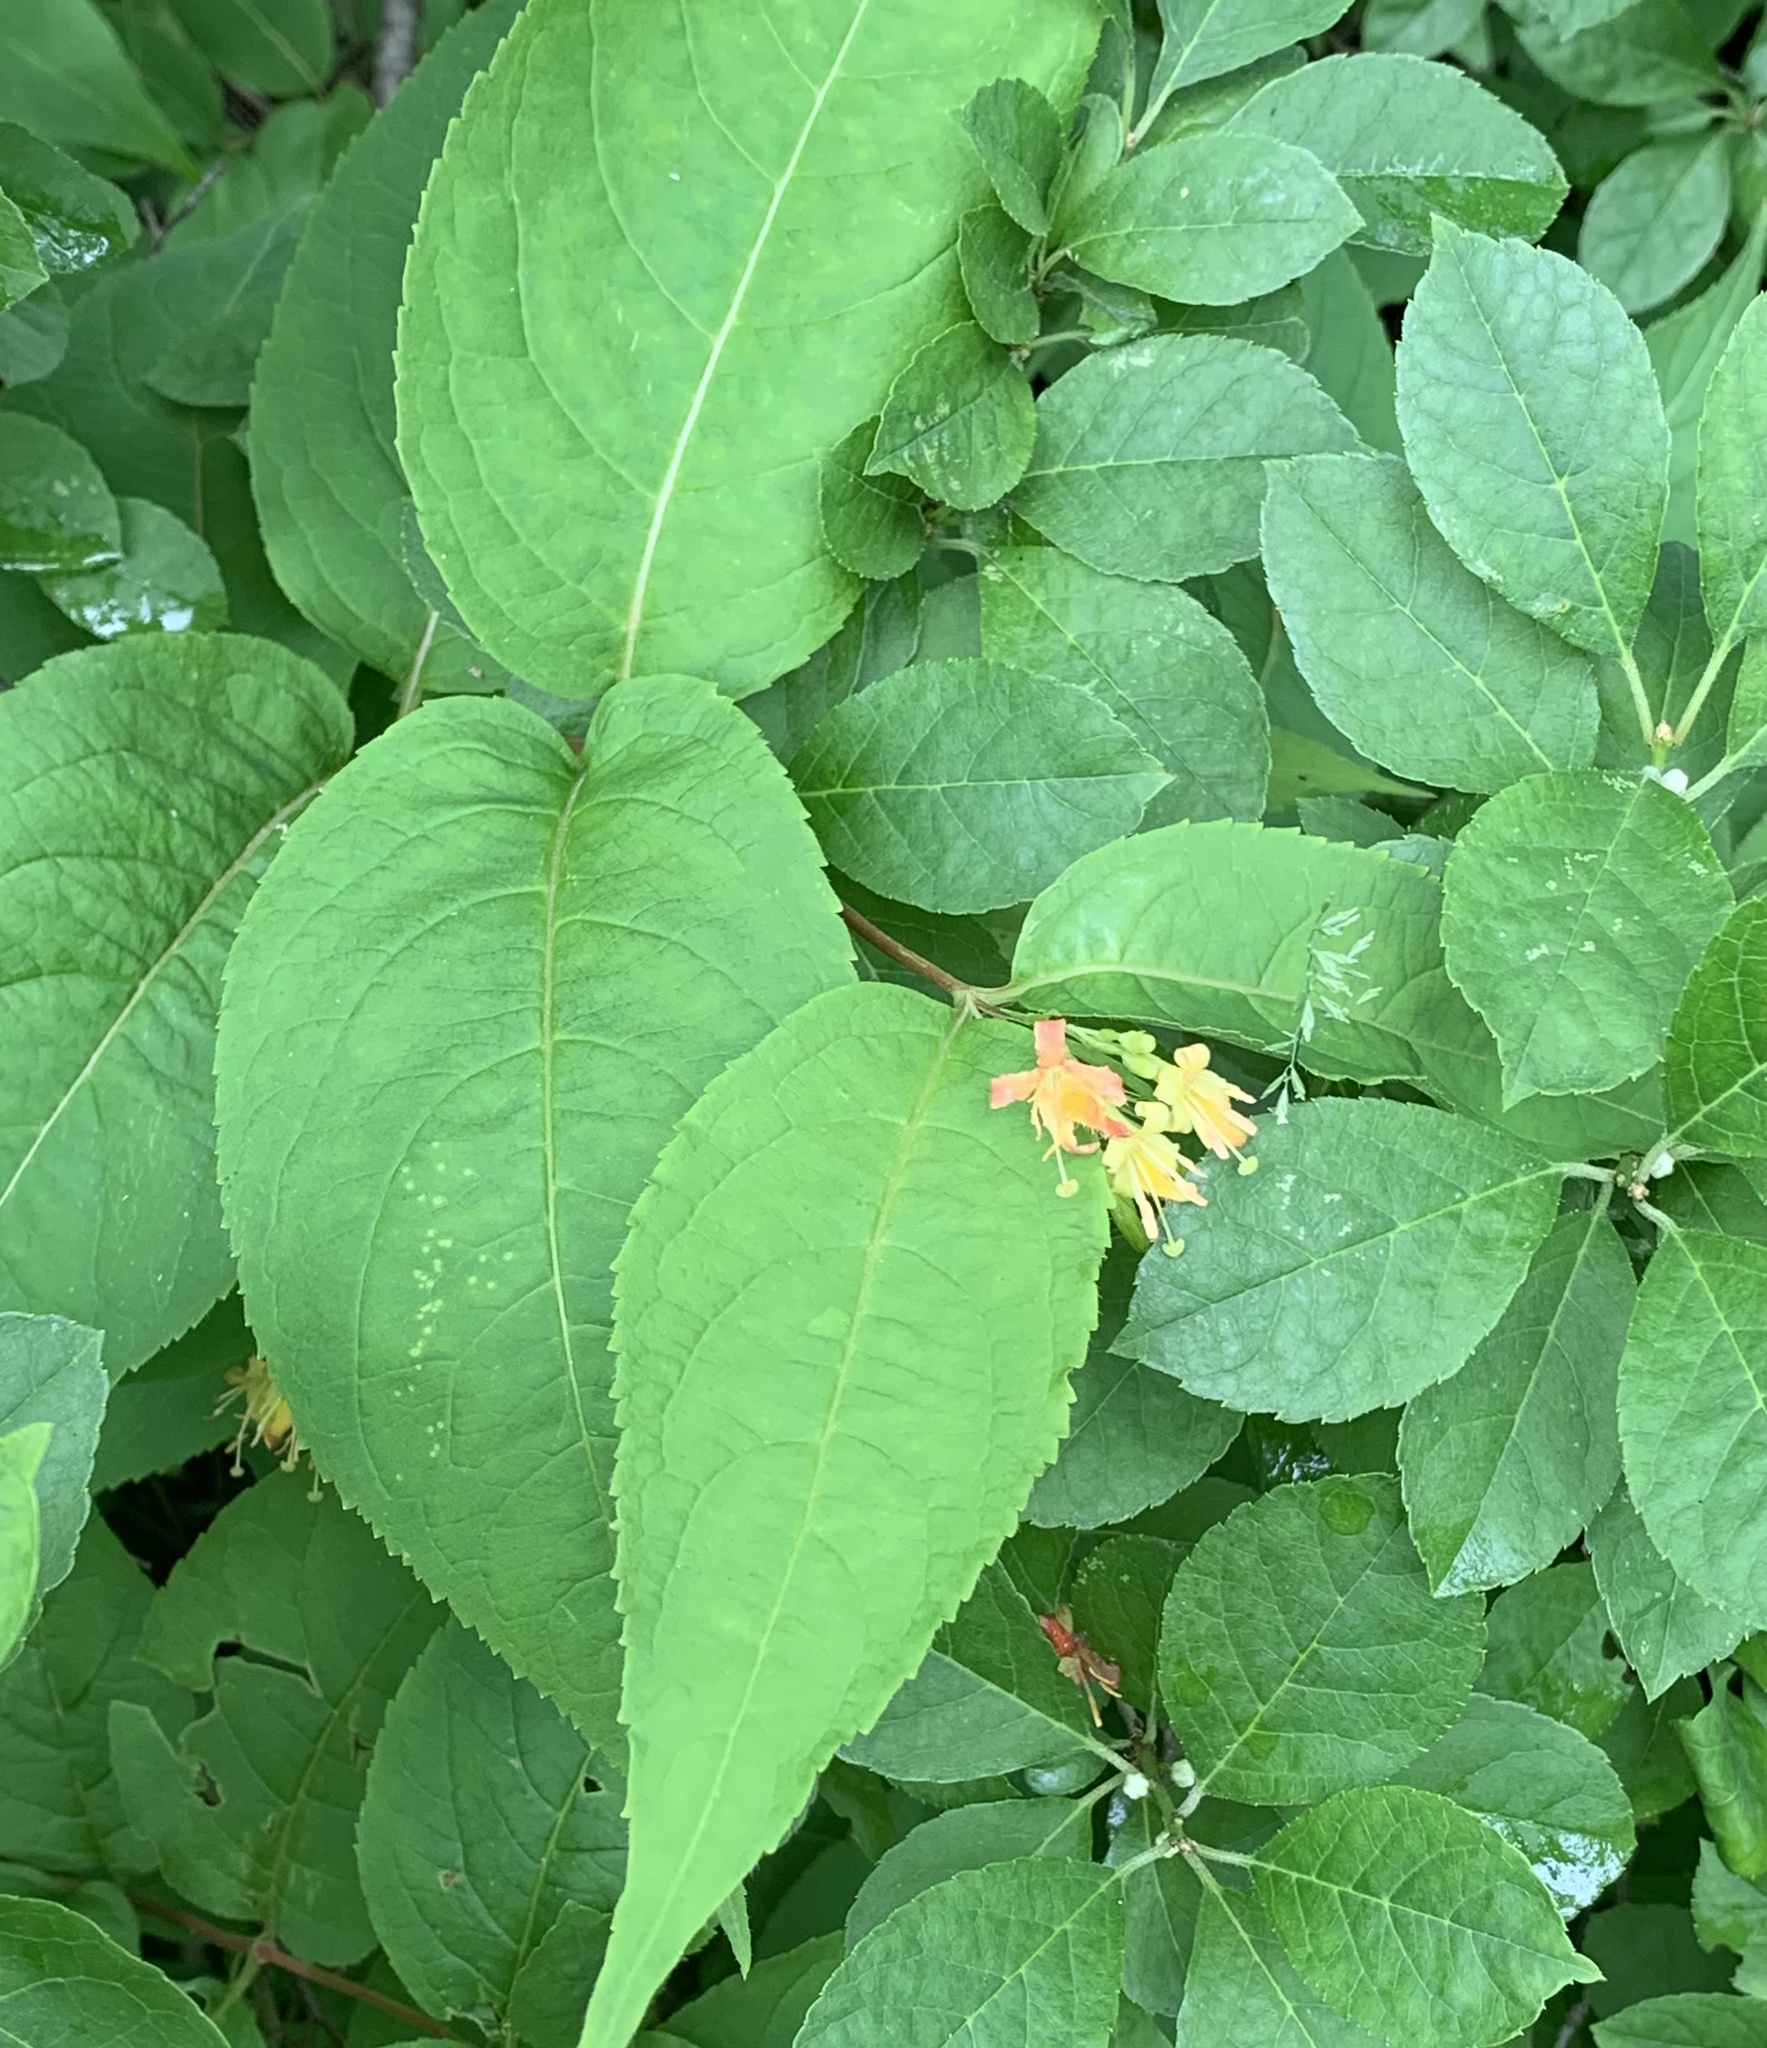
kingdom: Plantae
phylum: Tracheophyta
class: Magnoliopsida
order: Dipsacales
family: Caprifoliaceae
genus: Diervilla
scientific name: Diervilla lonicera
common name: Bush-honeysuckle
